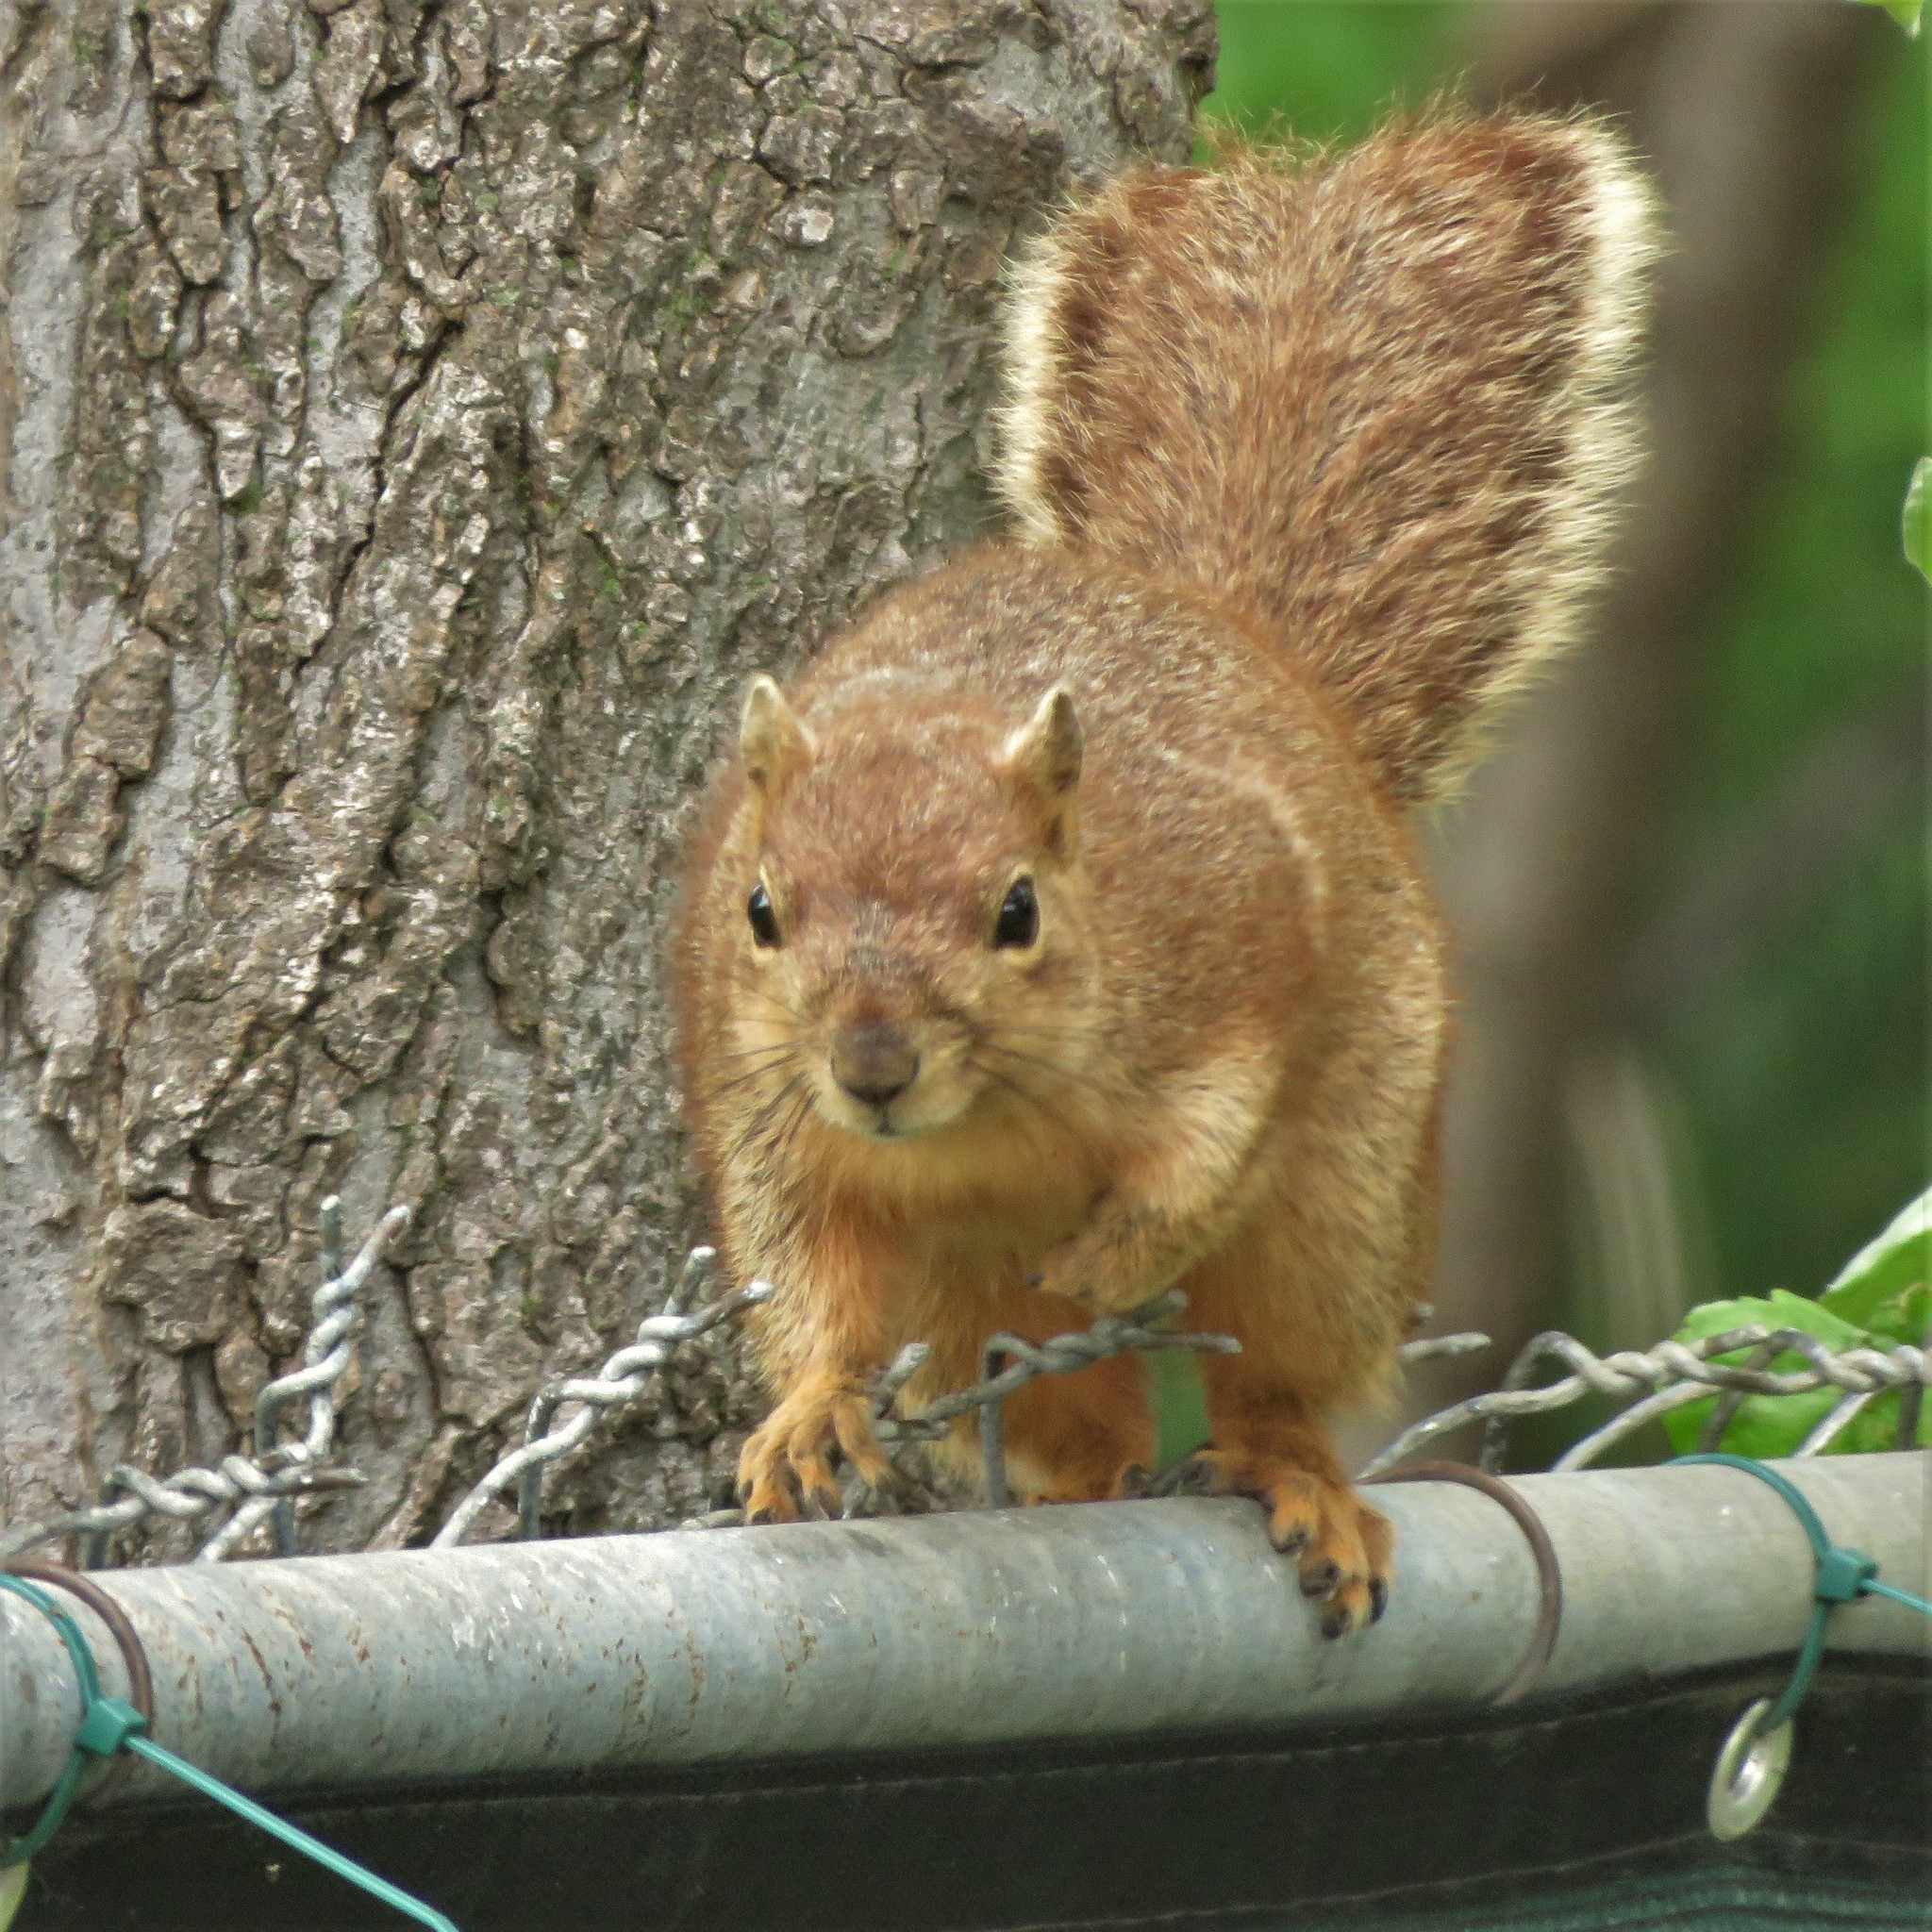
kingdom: Animalia
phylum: Chordata
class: Mammalia
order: Rodentia
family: Sciuridae
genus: Sciurus
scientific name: Sciurus niger
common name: Fox squirrel
